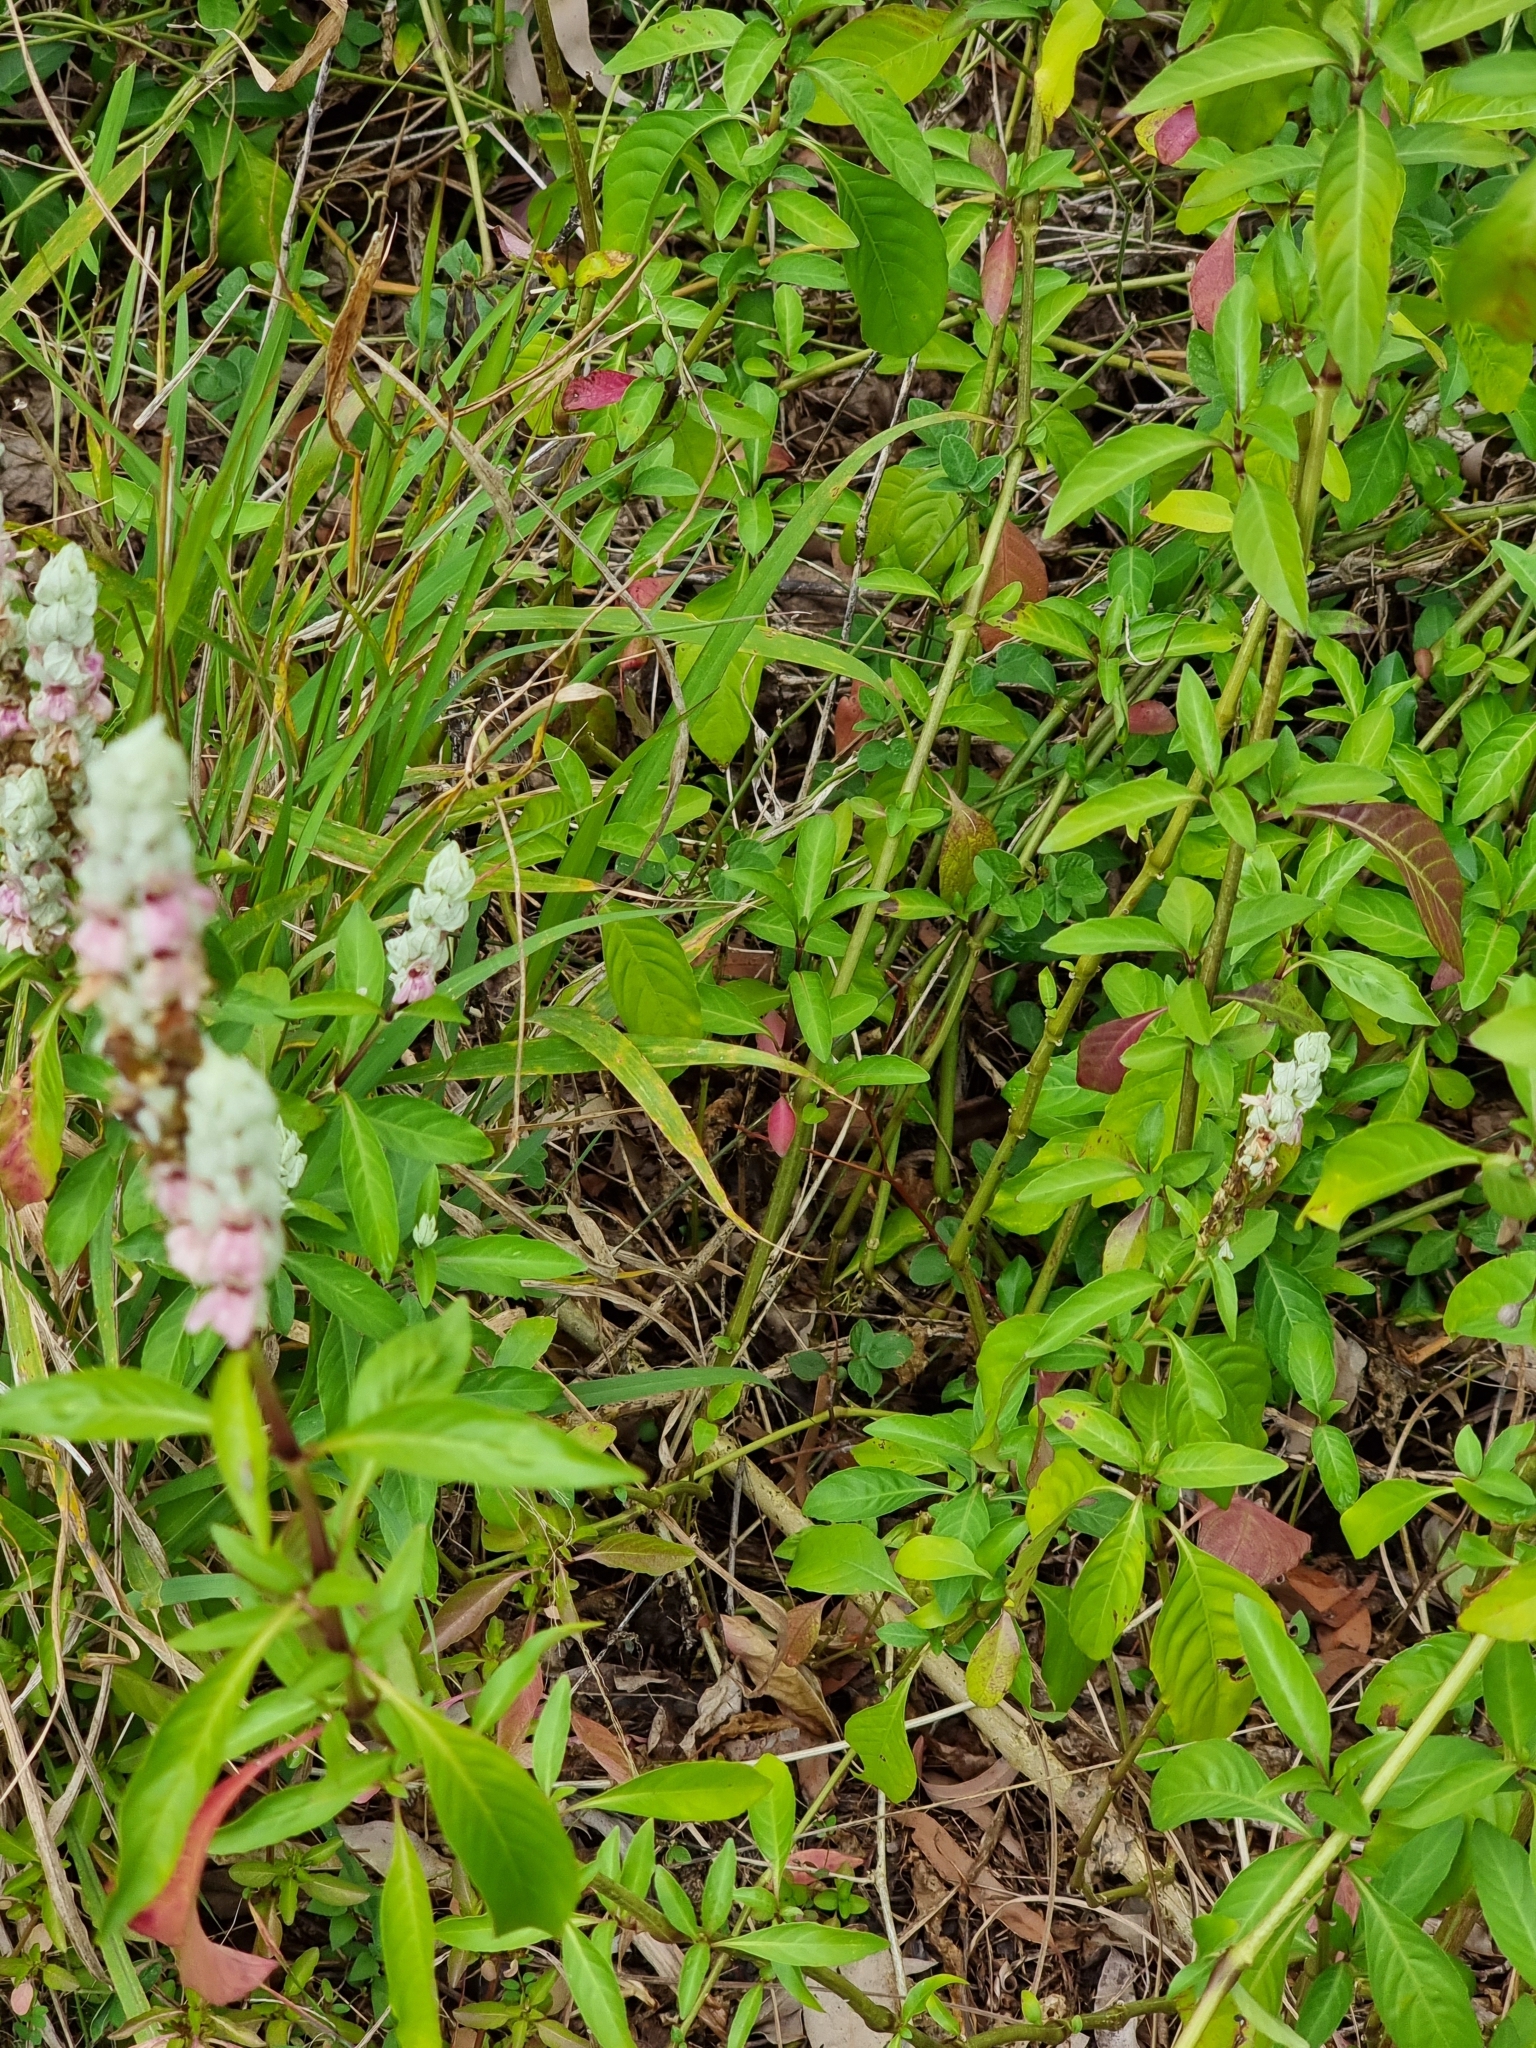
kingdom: Plantae
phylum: Tracheophyta
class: Magnoliopsida
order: Lamiales
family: Acanthaceae
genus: Justicia
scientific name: Justicia betonica
